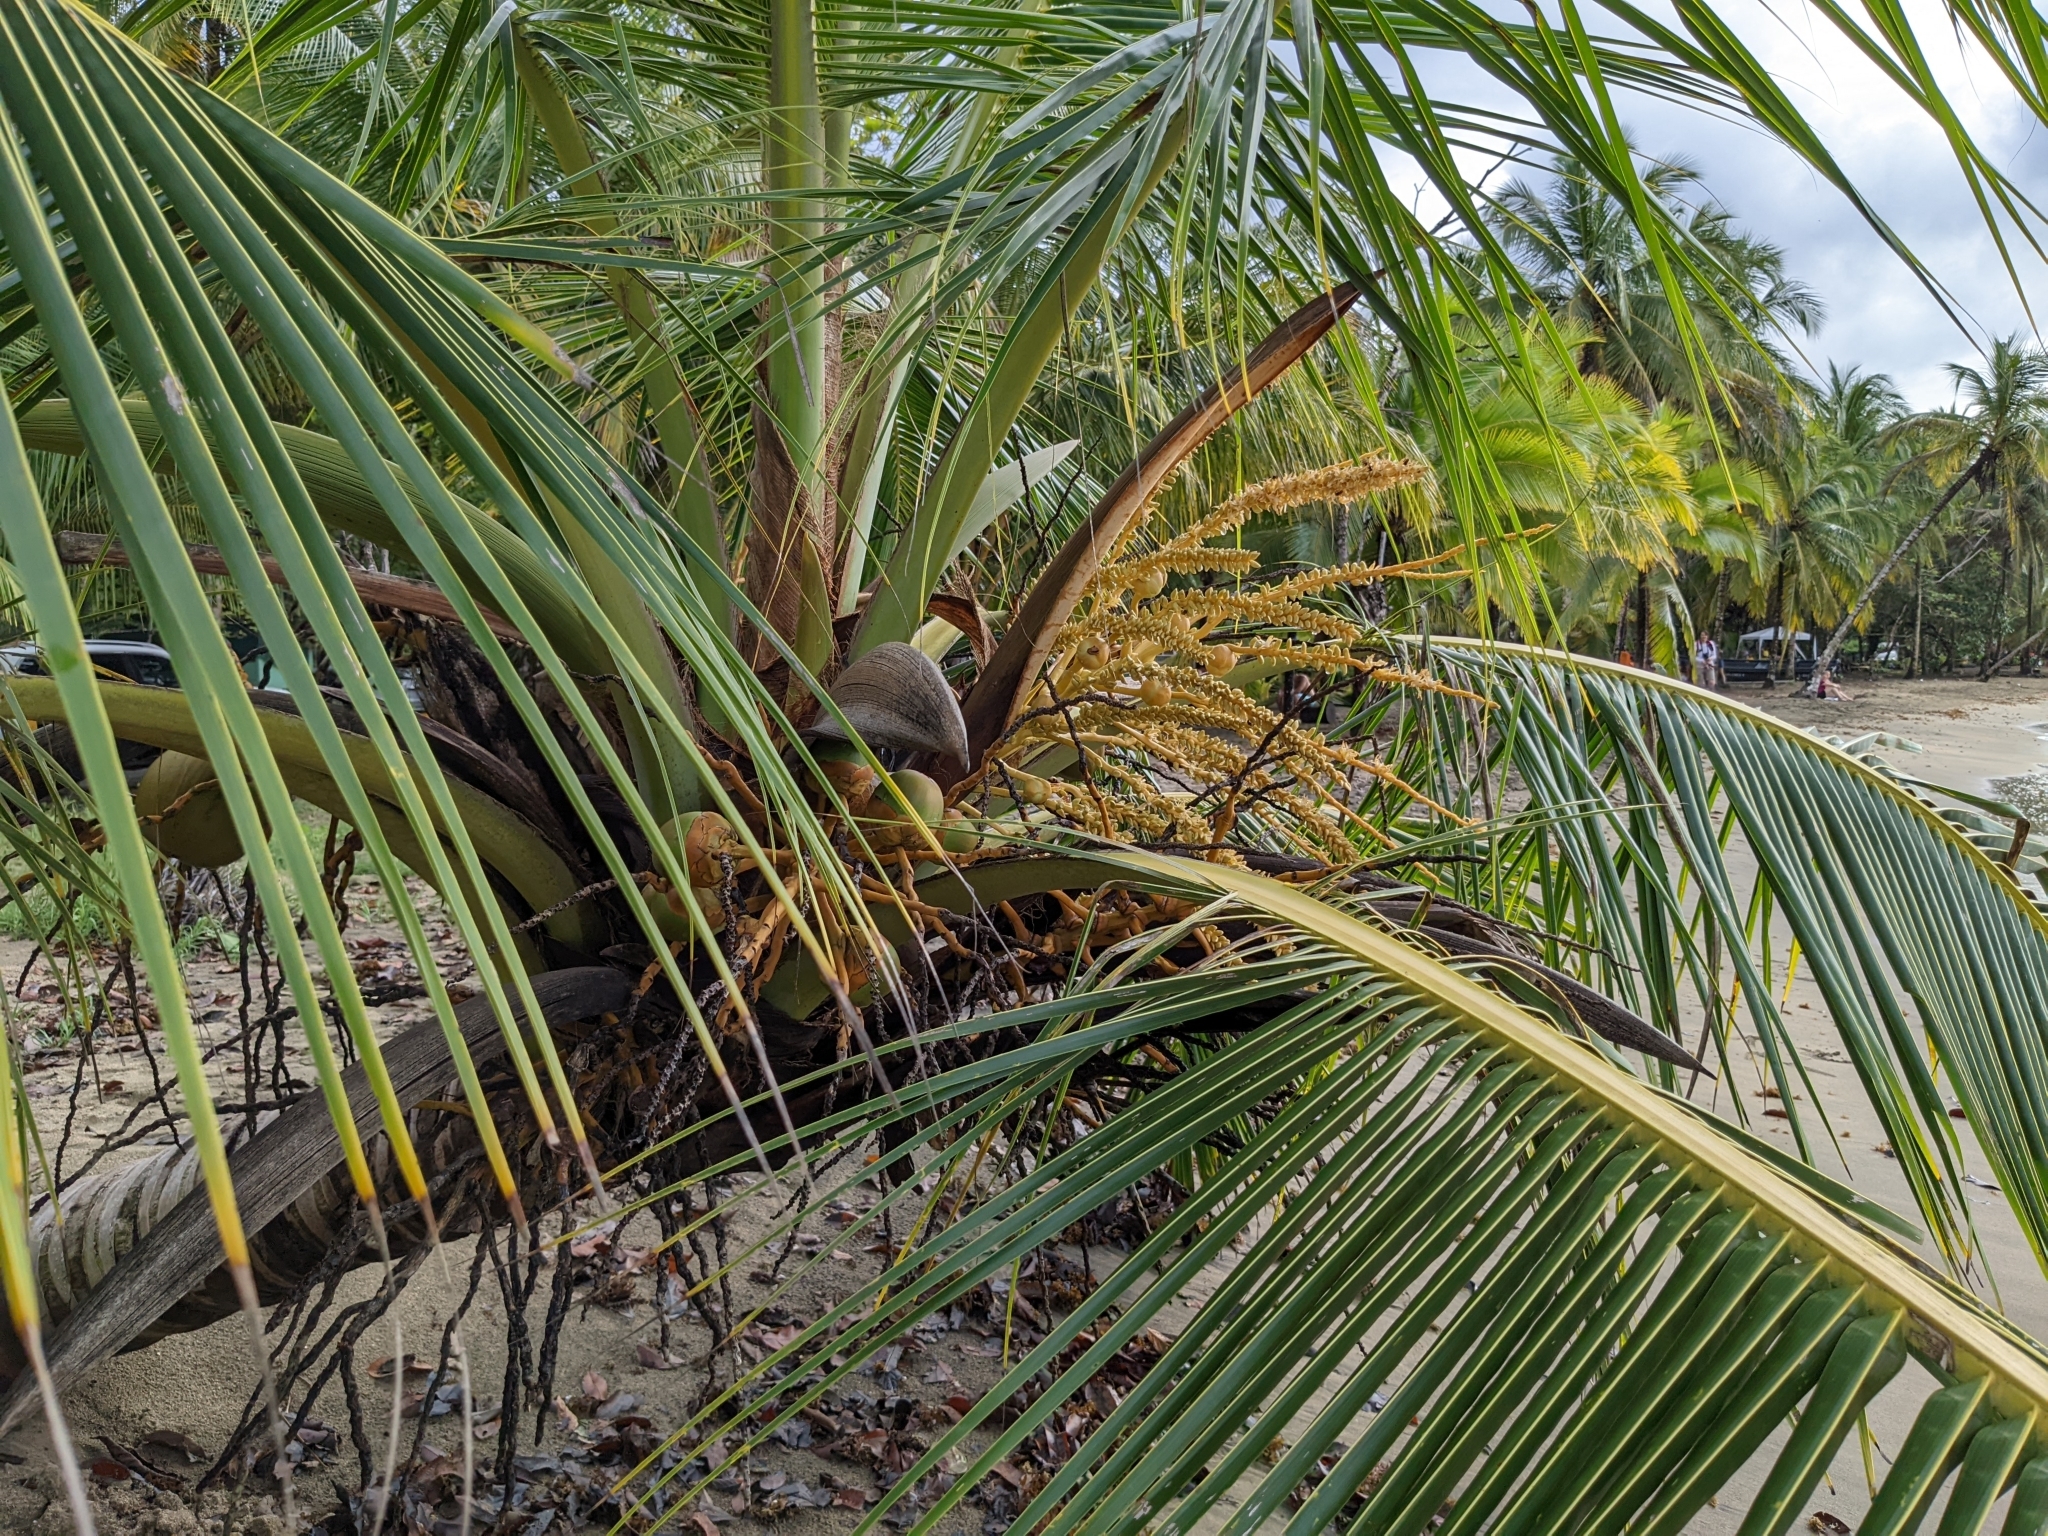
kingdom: Plantae
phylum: Tracheophyta
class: Liliopsida
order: Arecales
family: Arecaceae
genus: Cocos
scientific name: Cocos nucifera
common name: Coconut palm
